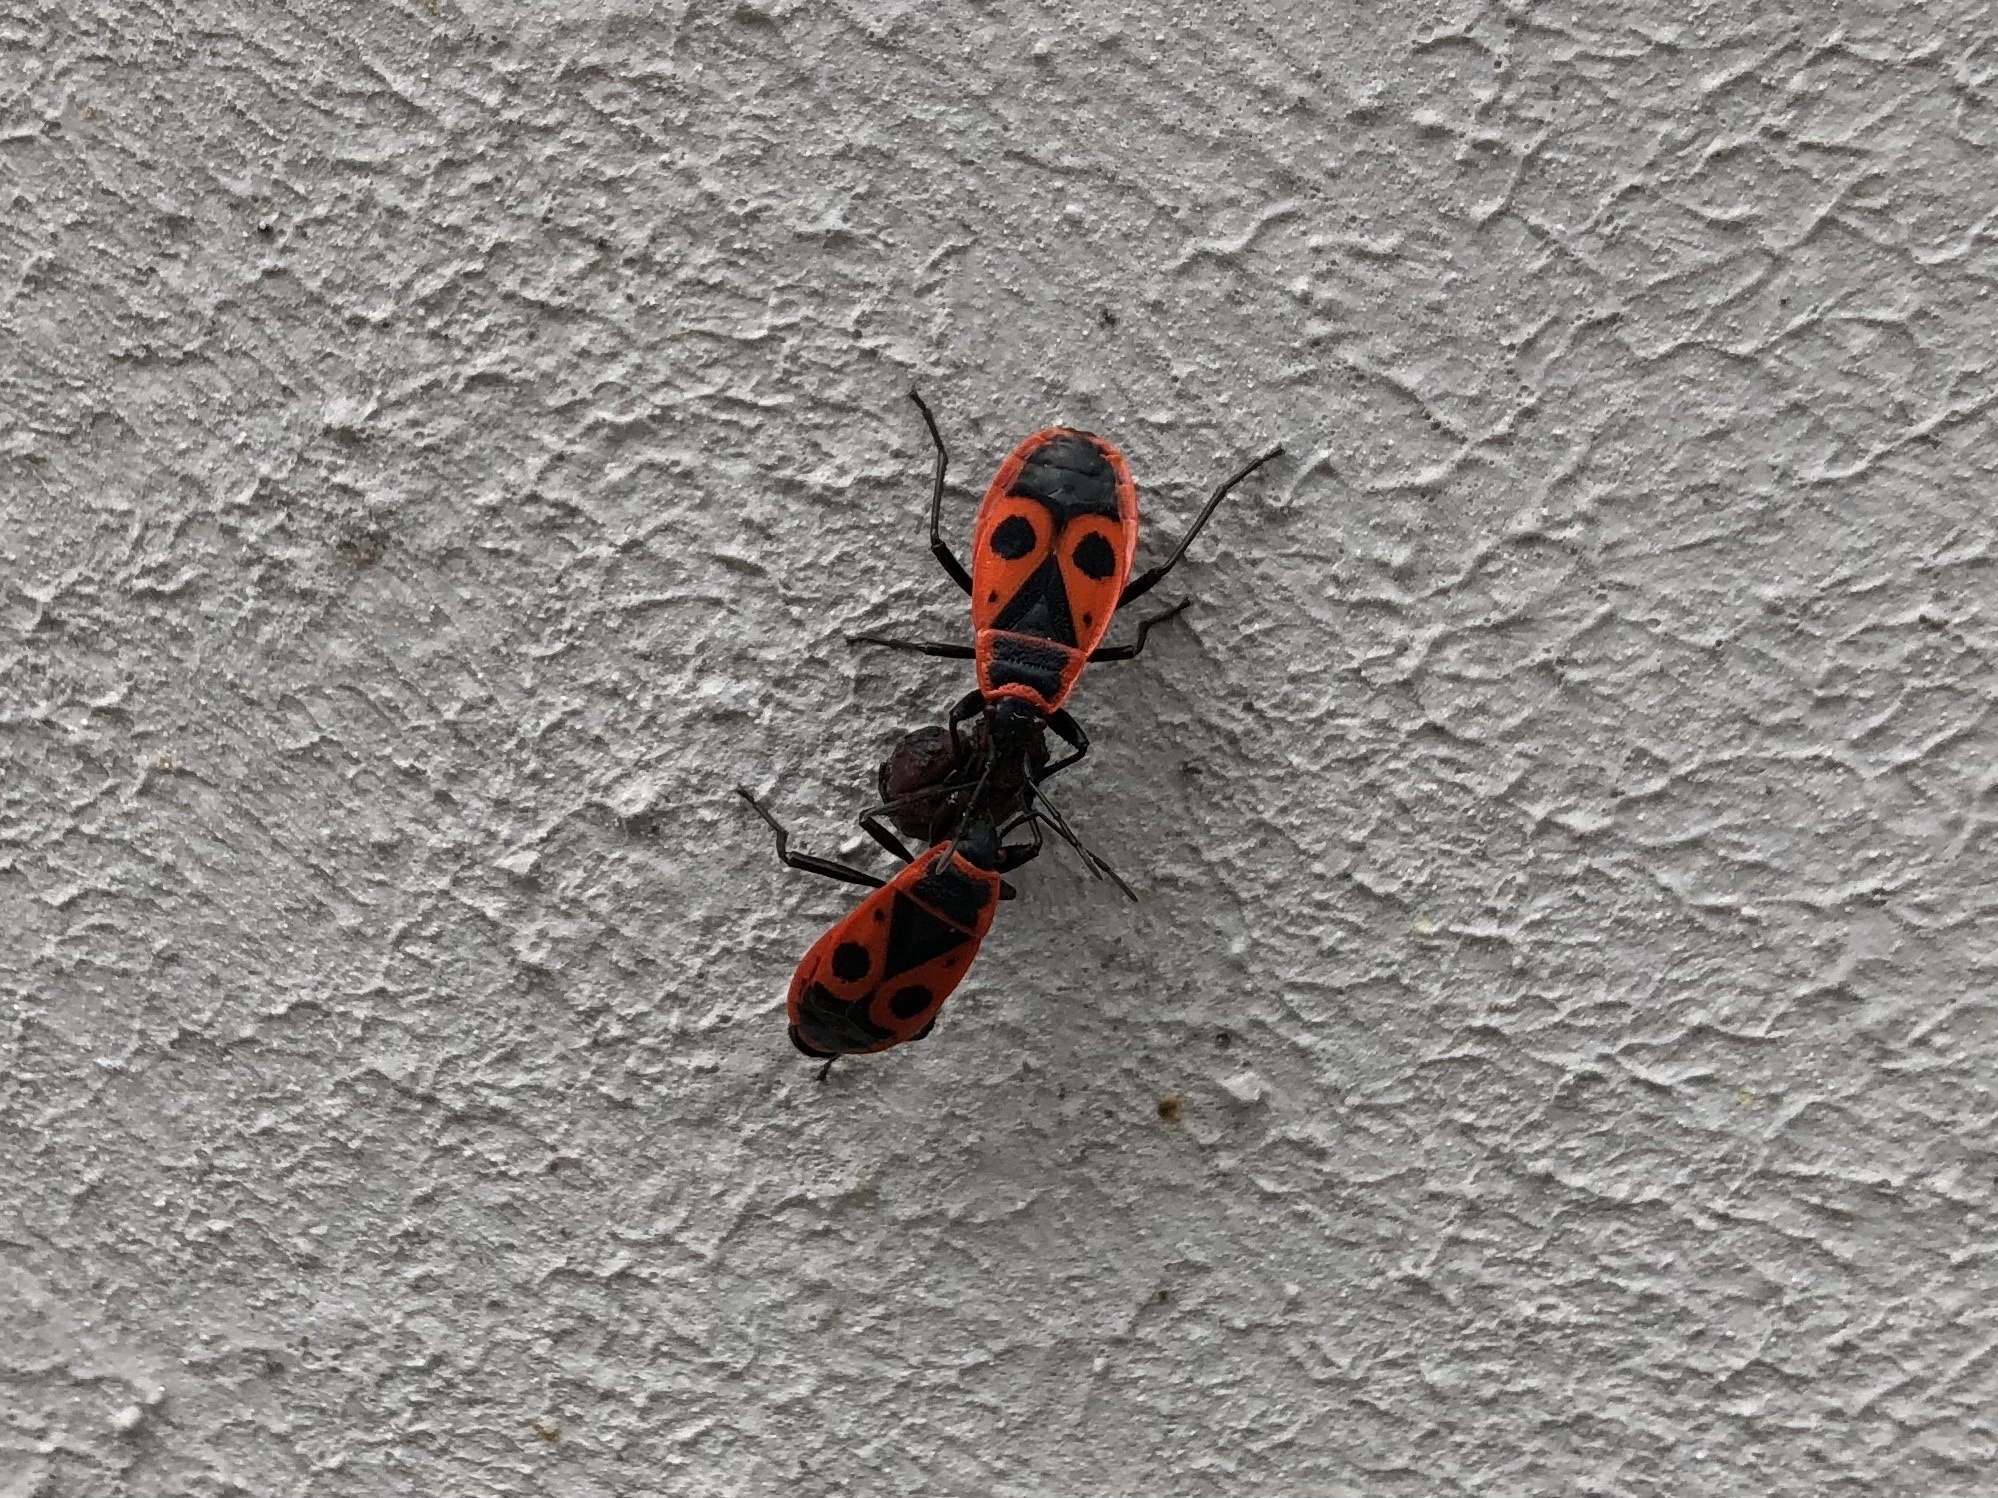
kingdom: Animalia
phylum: Arthropoda
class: Insecta
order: Hemiptera
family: Pyrrhocoridae
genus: Pyrrhocoris
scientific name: Pyrrhocoris apterus
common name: Firebug
